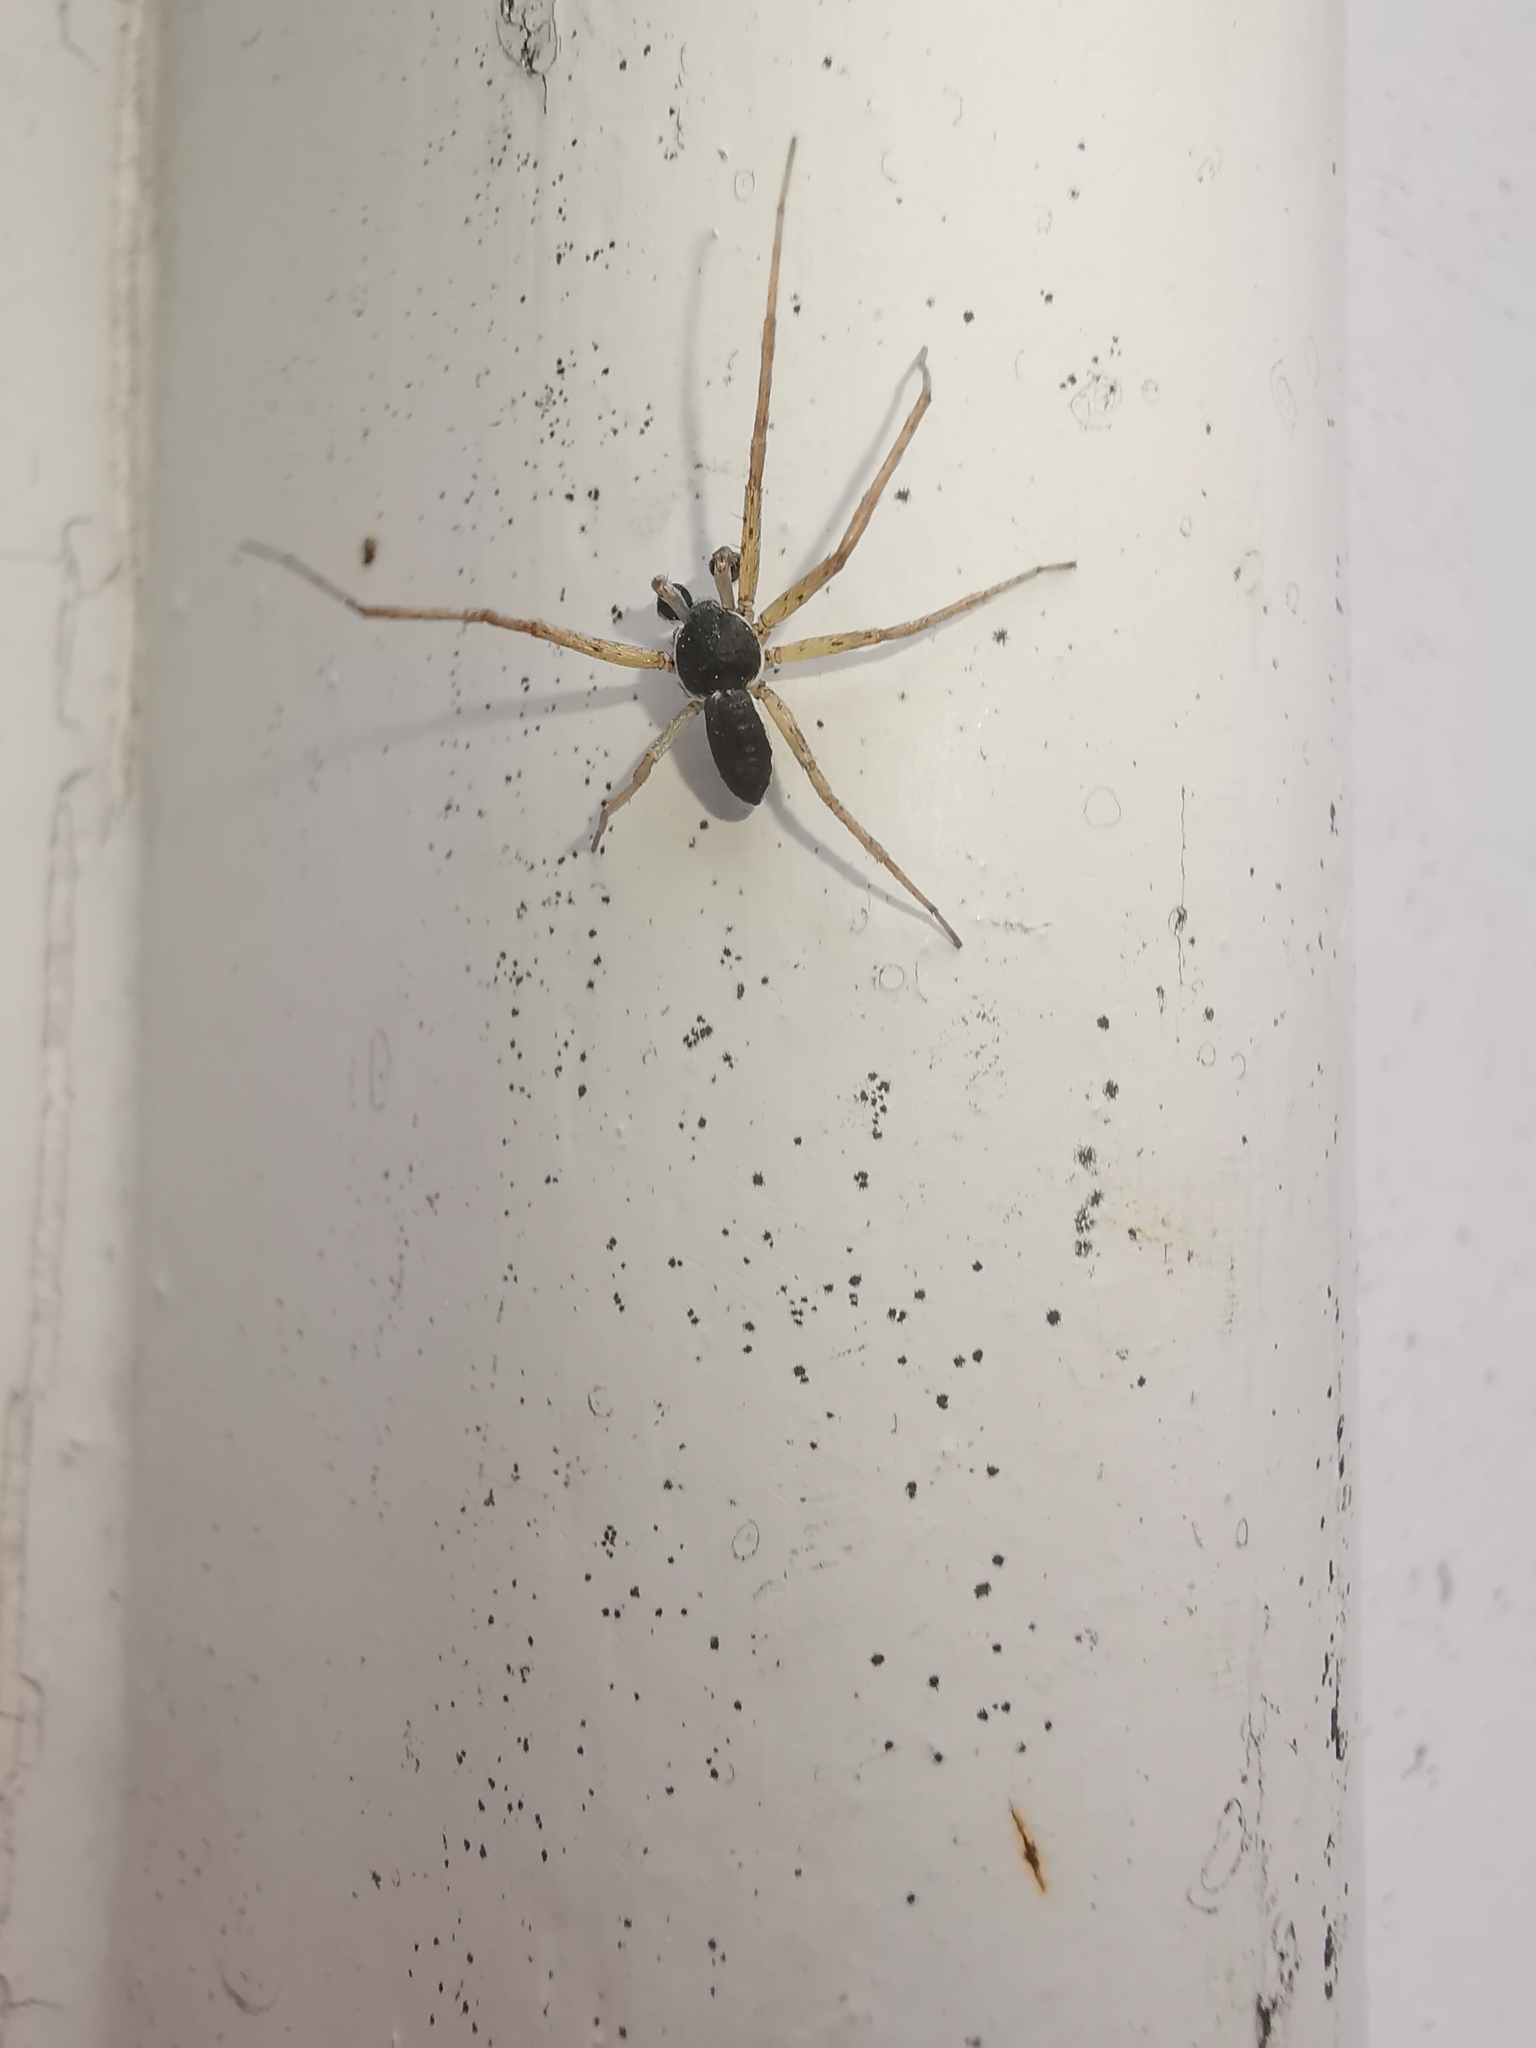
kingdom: Animalia
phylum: Arthropoda
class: Arachnida
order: Araneae
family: Philodromidae
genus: Philodromus
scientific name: Philodromus dispar
